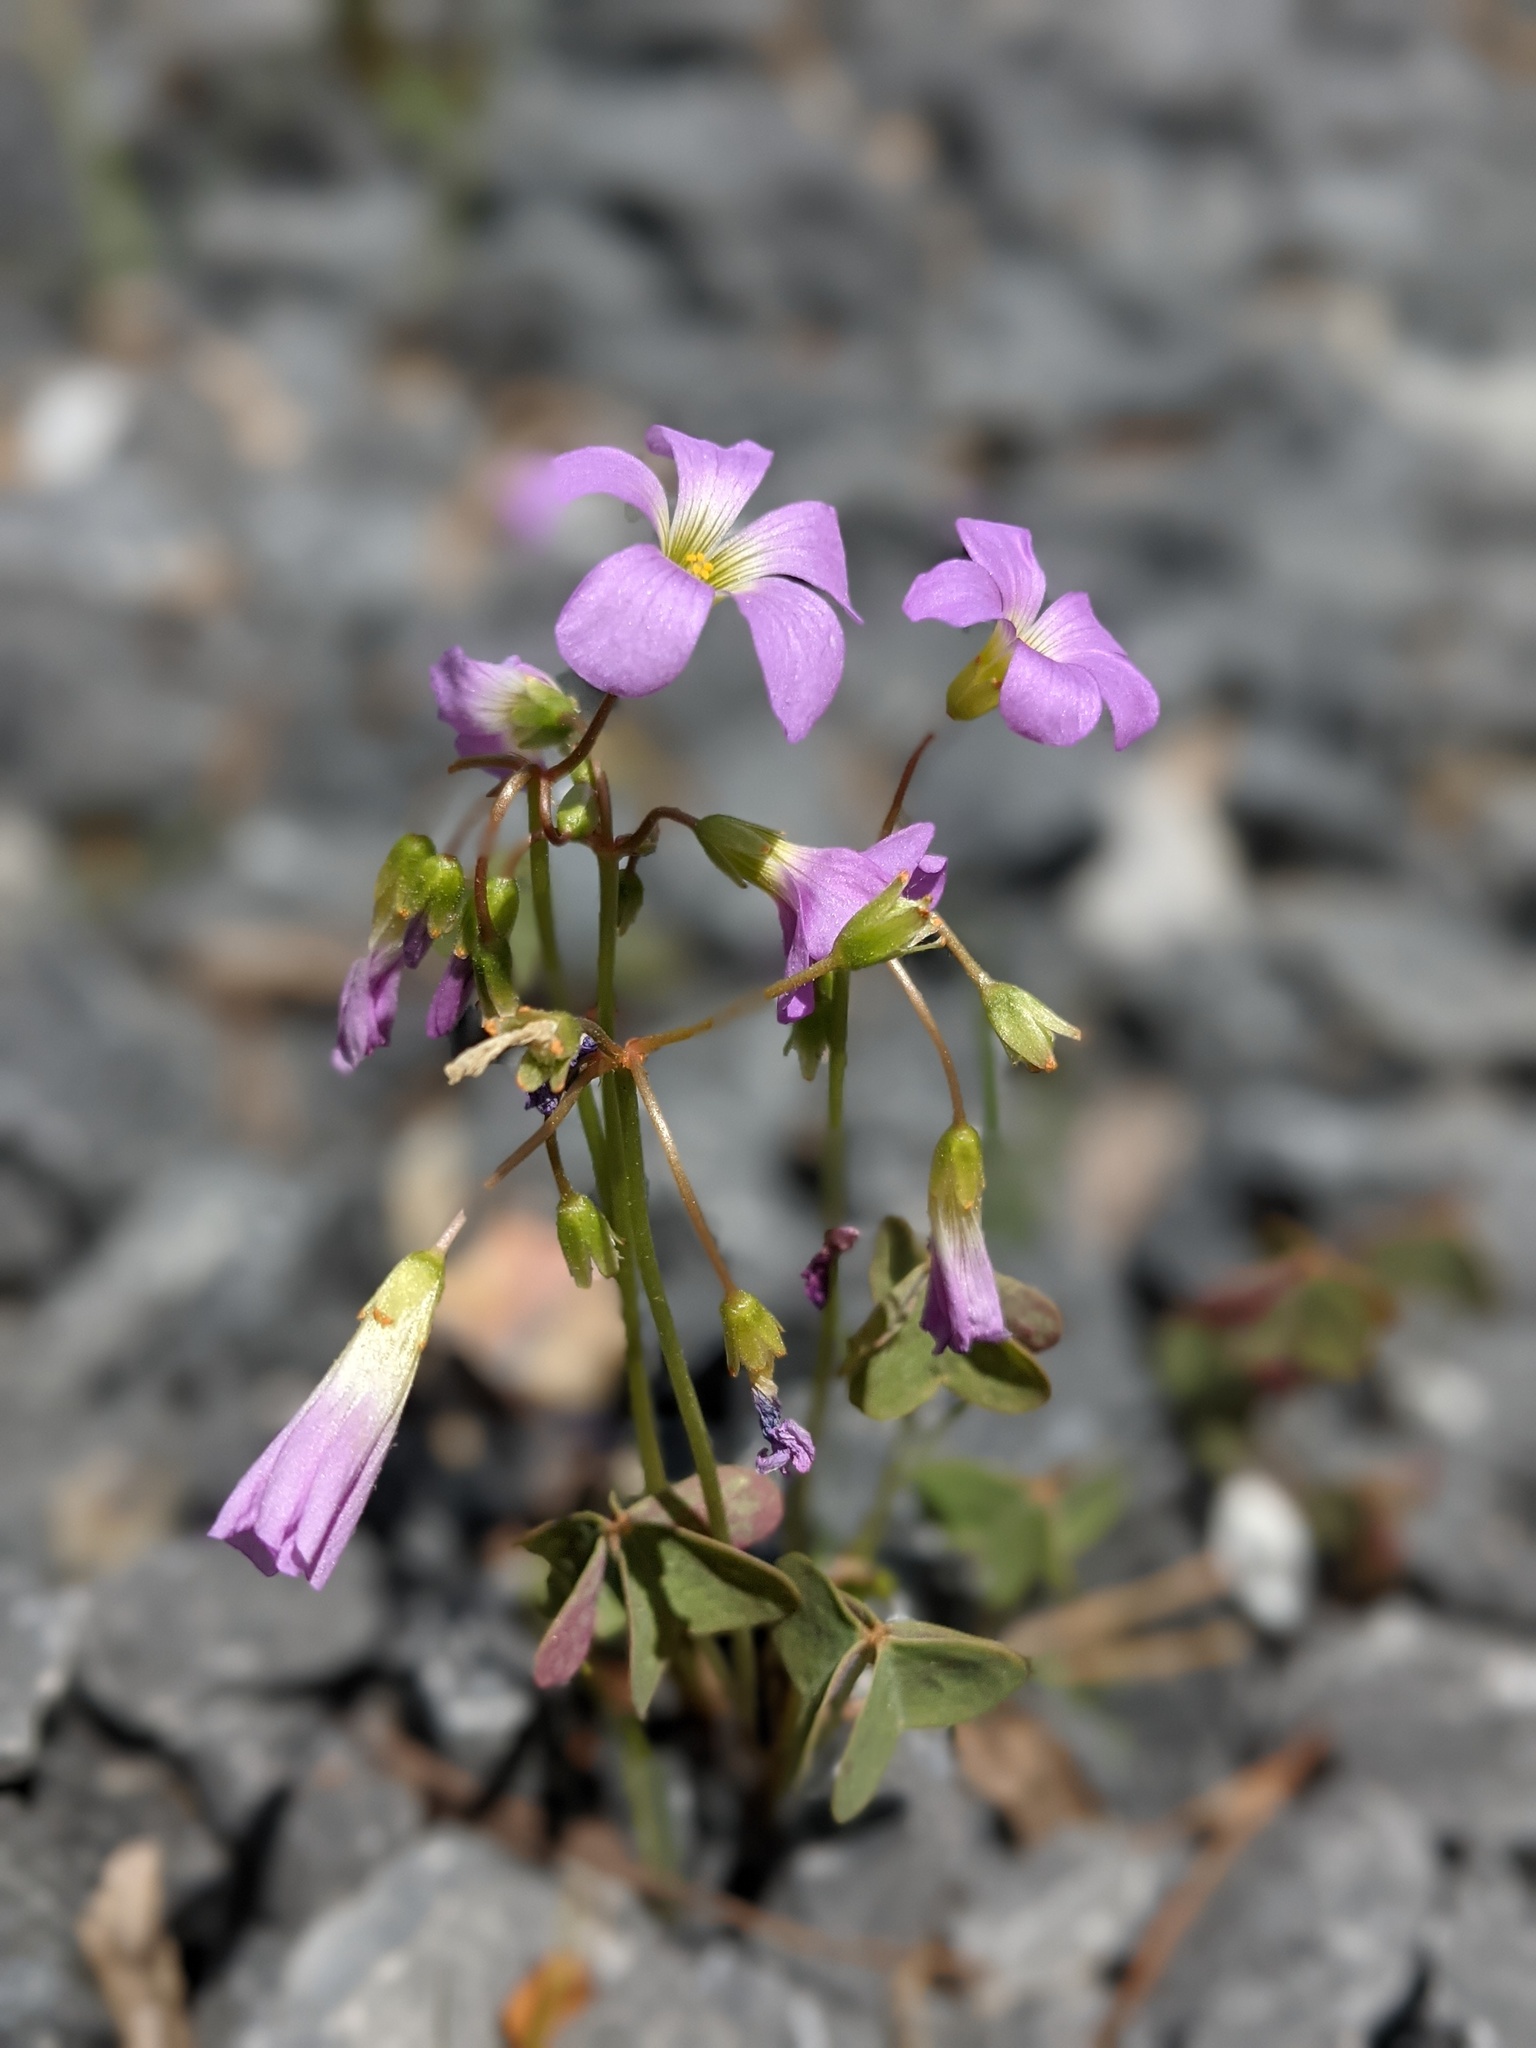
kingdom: Plantae
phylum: Tracheophyta
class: Magnoliopsida
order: Oxalidales
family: Oxalidaceae
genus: Oxalis
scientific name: Oxalis violacea
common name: Violet wood-sorrel
